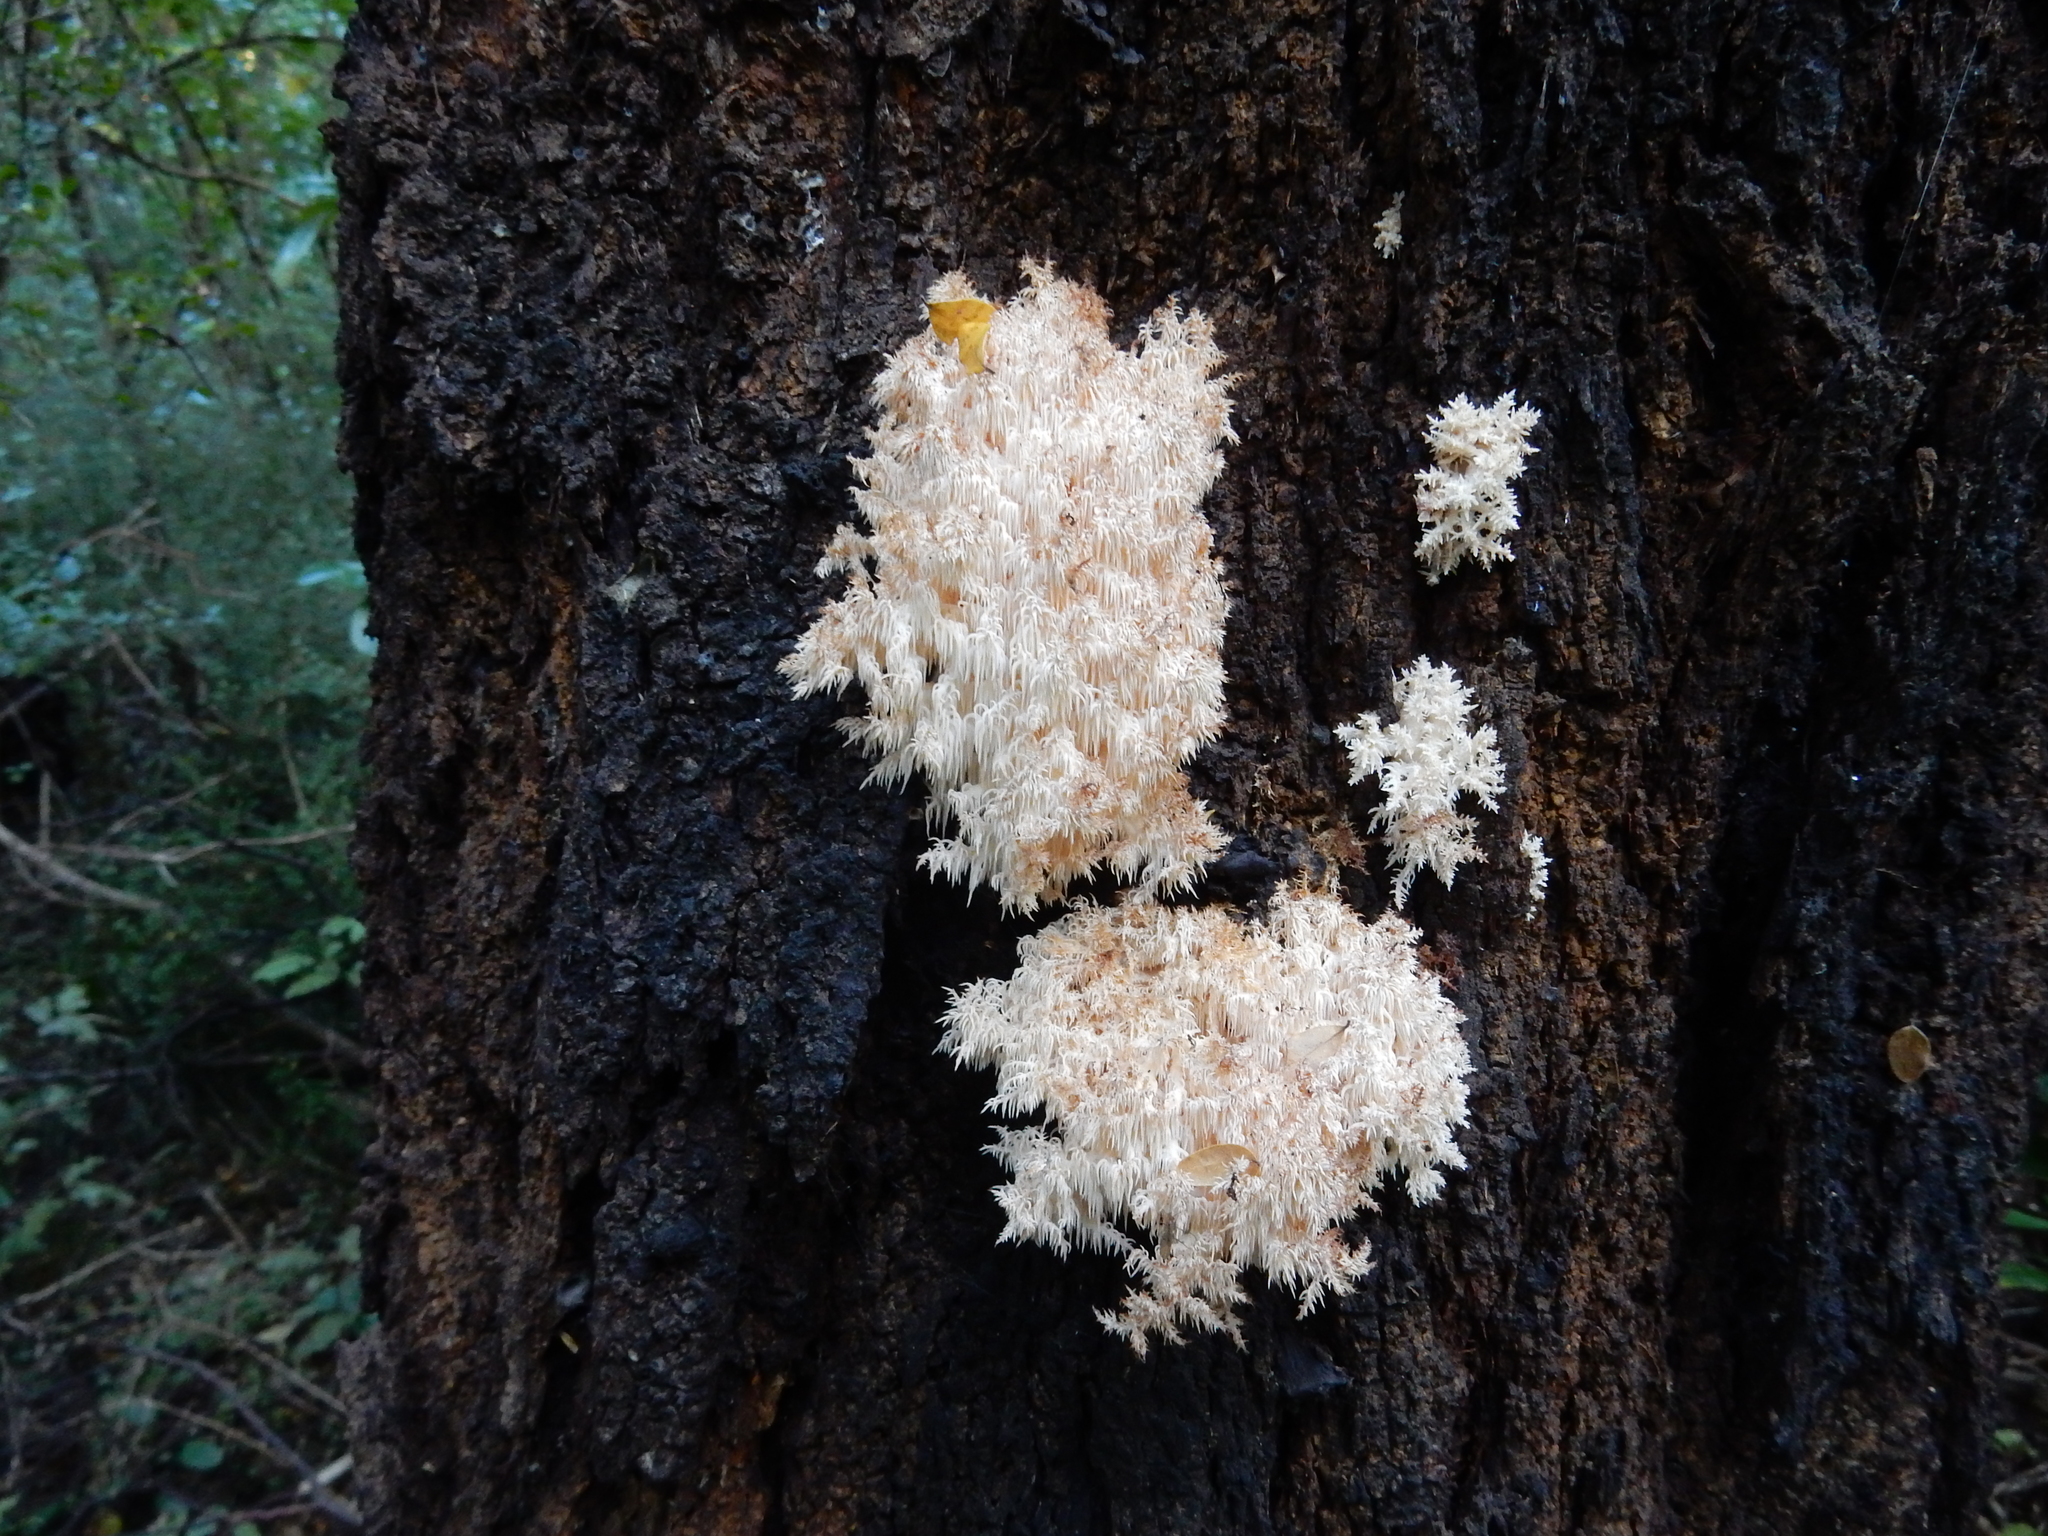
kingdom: Fungi
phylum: Basidiomycota
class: Agaricomycetes
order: Russulales
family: Hericiaceae
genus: Hericium
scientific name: Hericium novae-zealandiae
